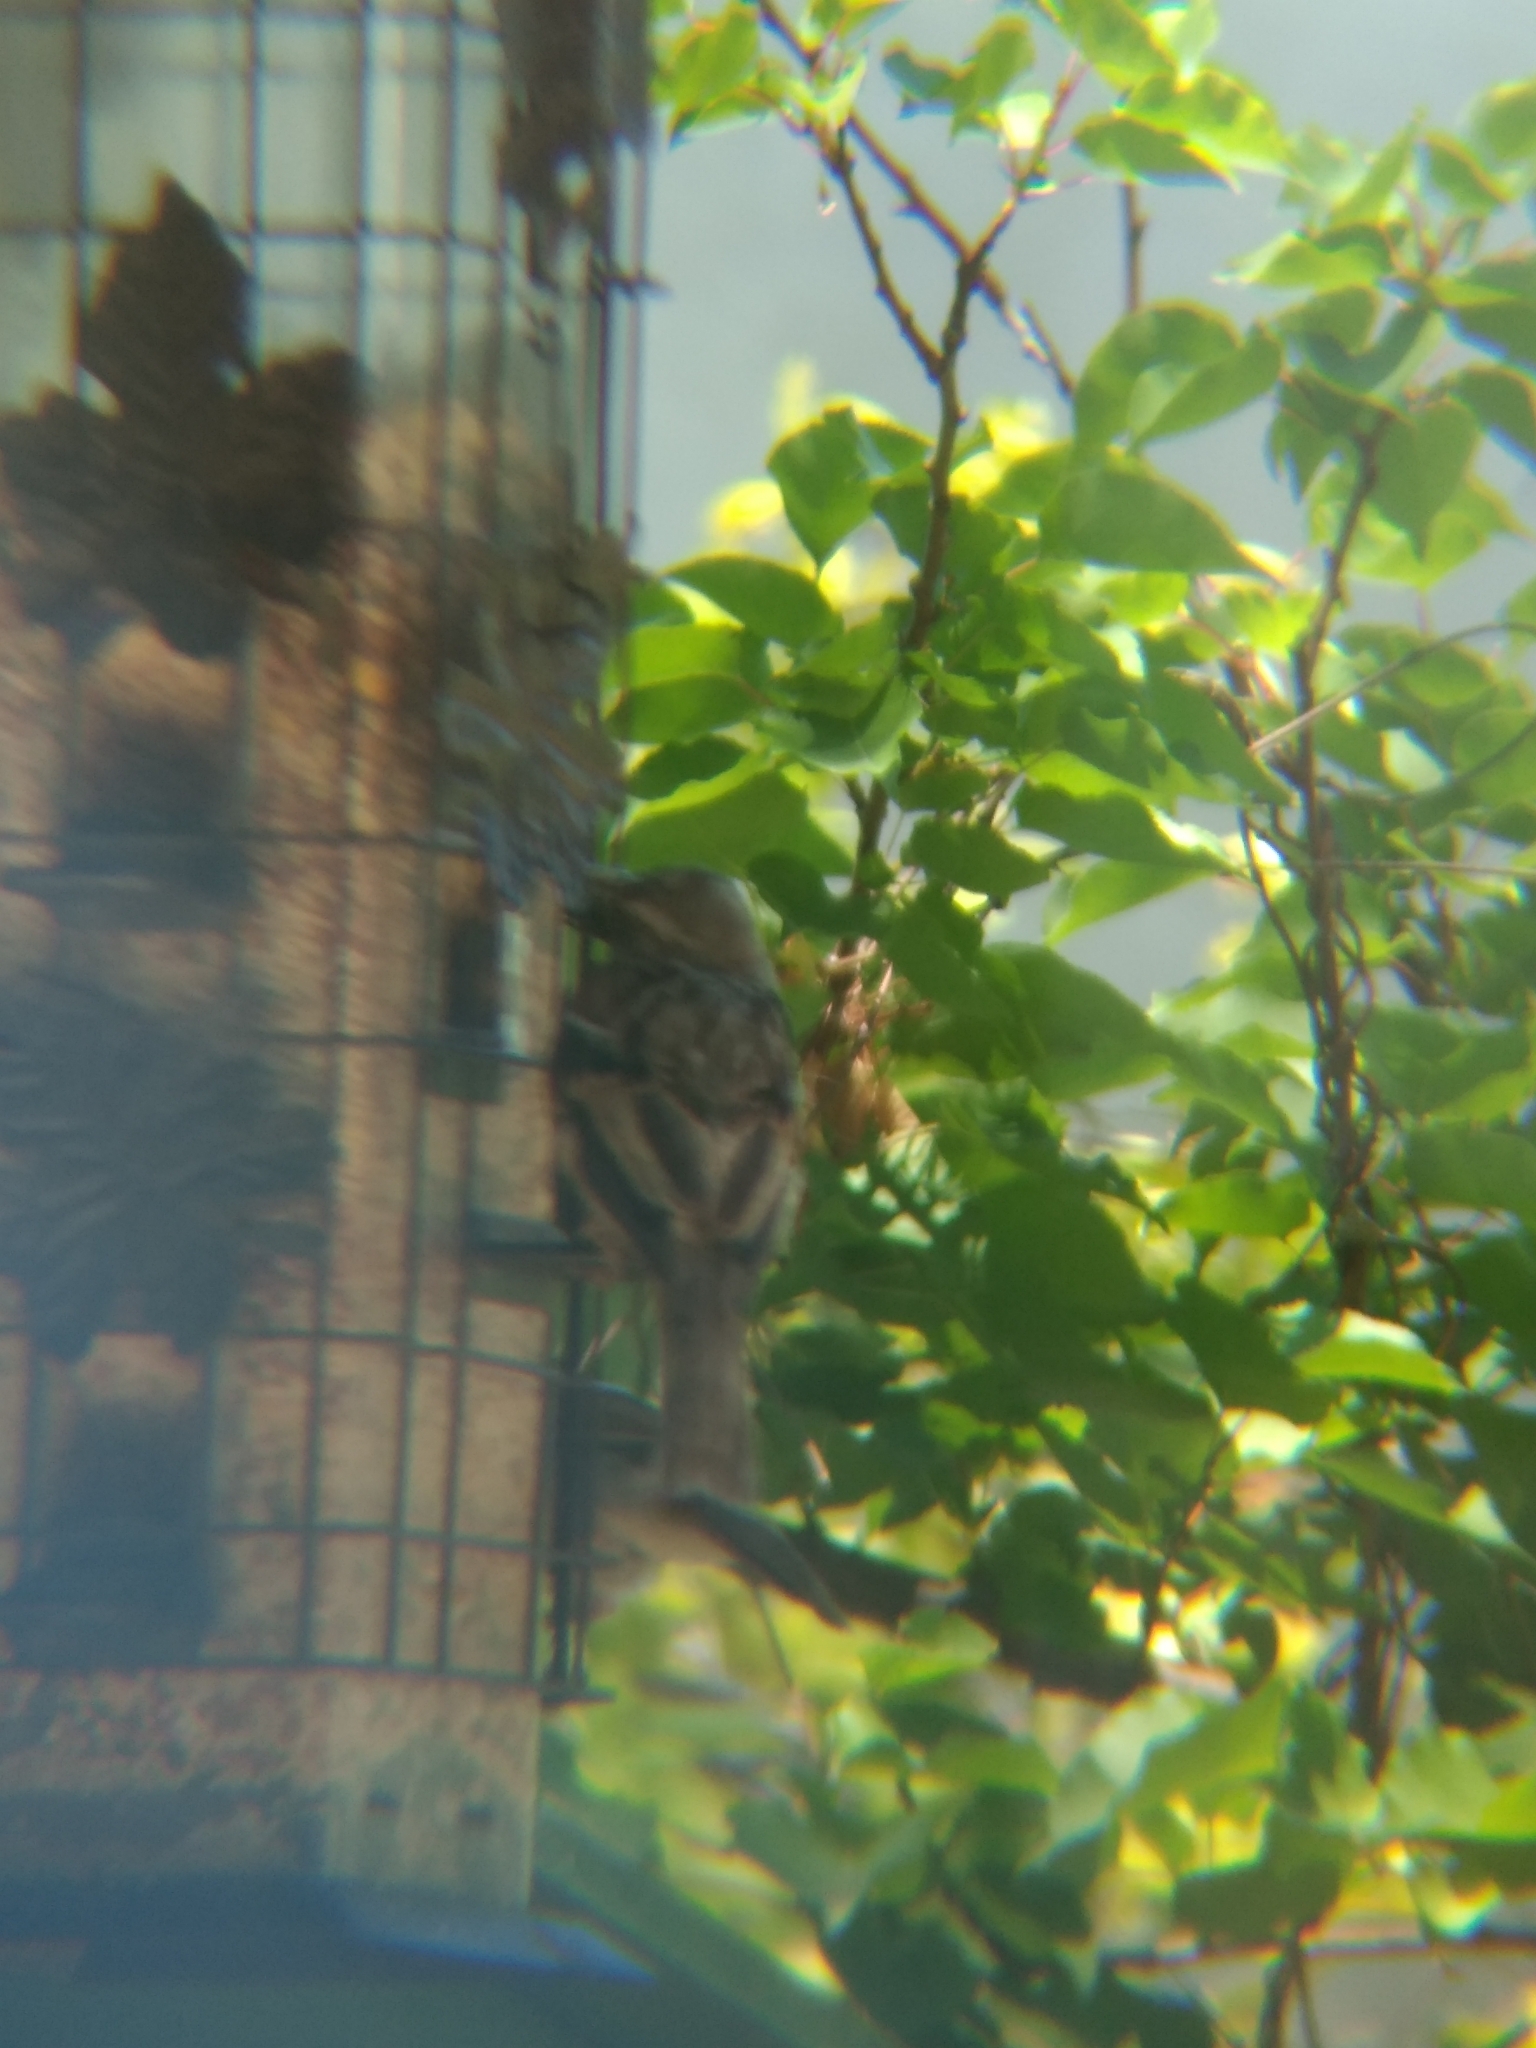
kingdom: Animalia
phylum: Chordata
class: Aves
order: Passeriformes
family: Passeridae
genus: Passer
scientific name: Passer domesticus
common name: House sparrow
